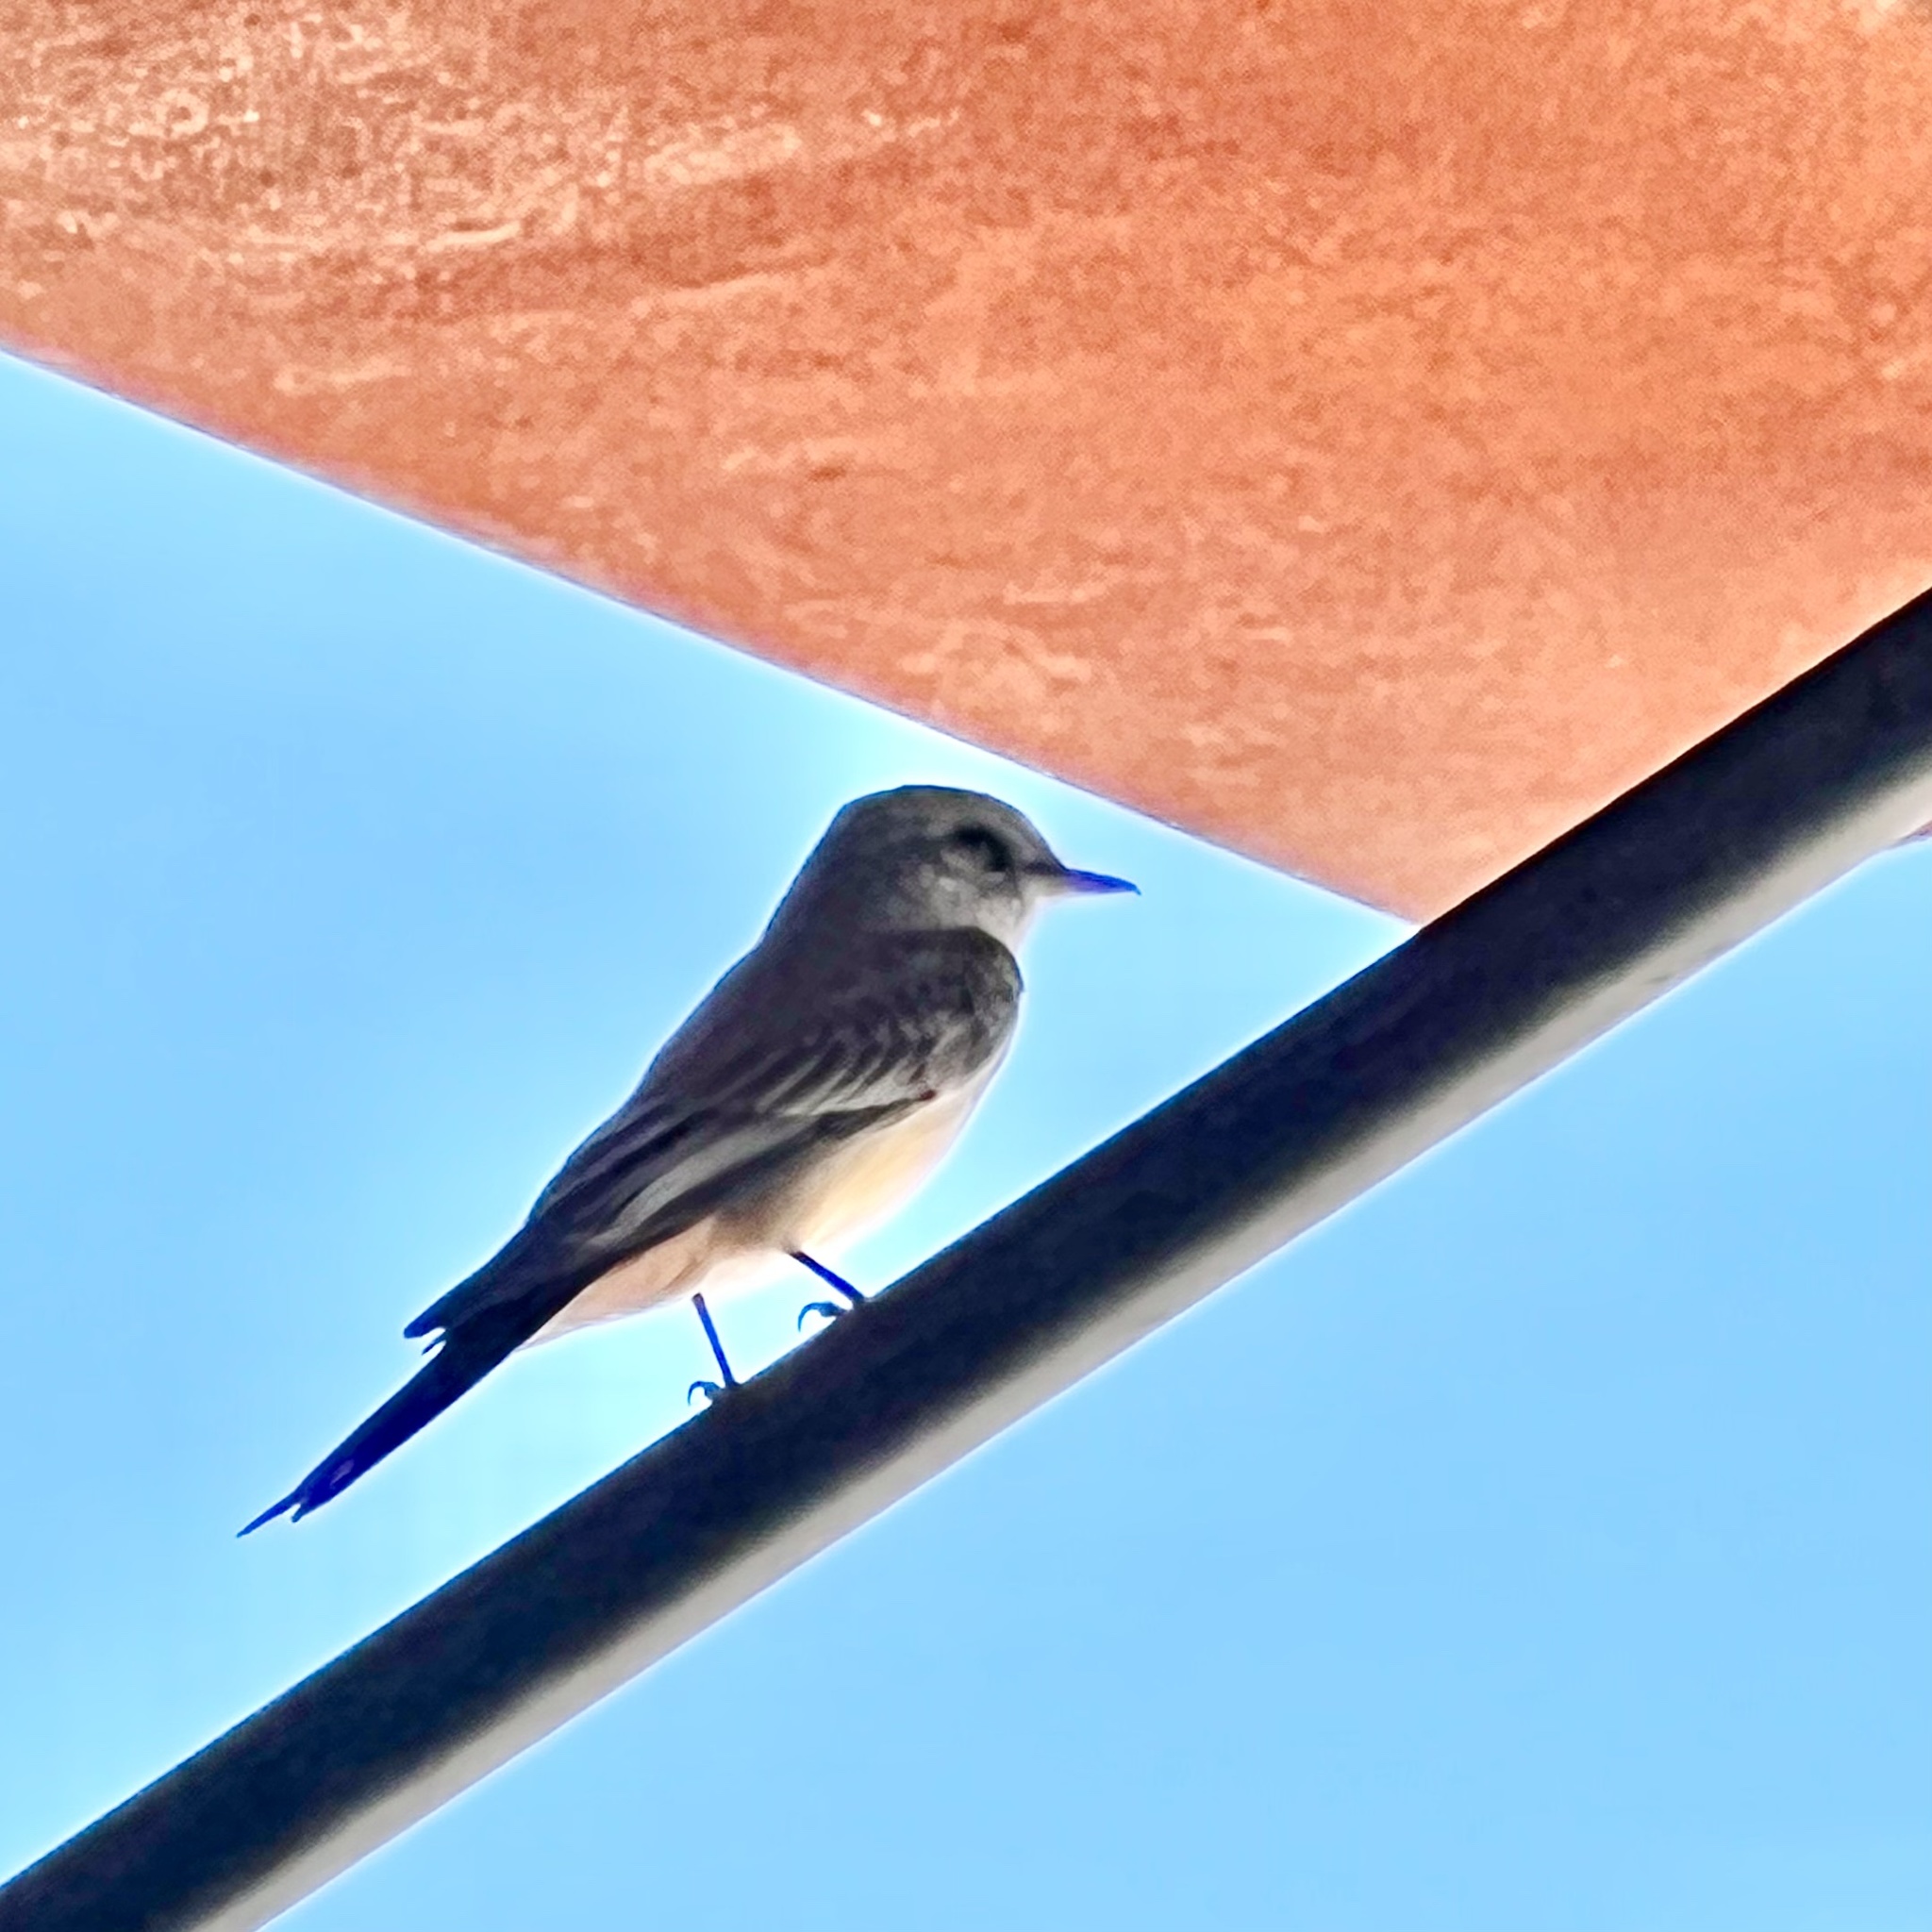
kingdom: Animalia
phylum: Chordata
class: Aves
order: Passeriformes
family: Tyrannidae
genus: Sayornis
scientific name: Sayornis saya
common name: Say's phoebe
